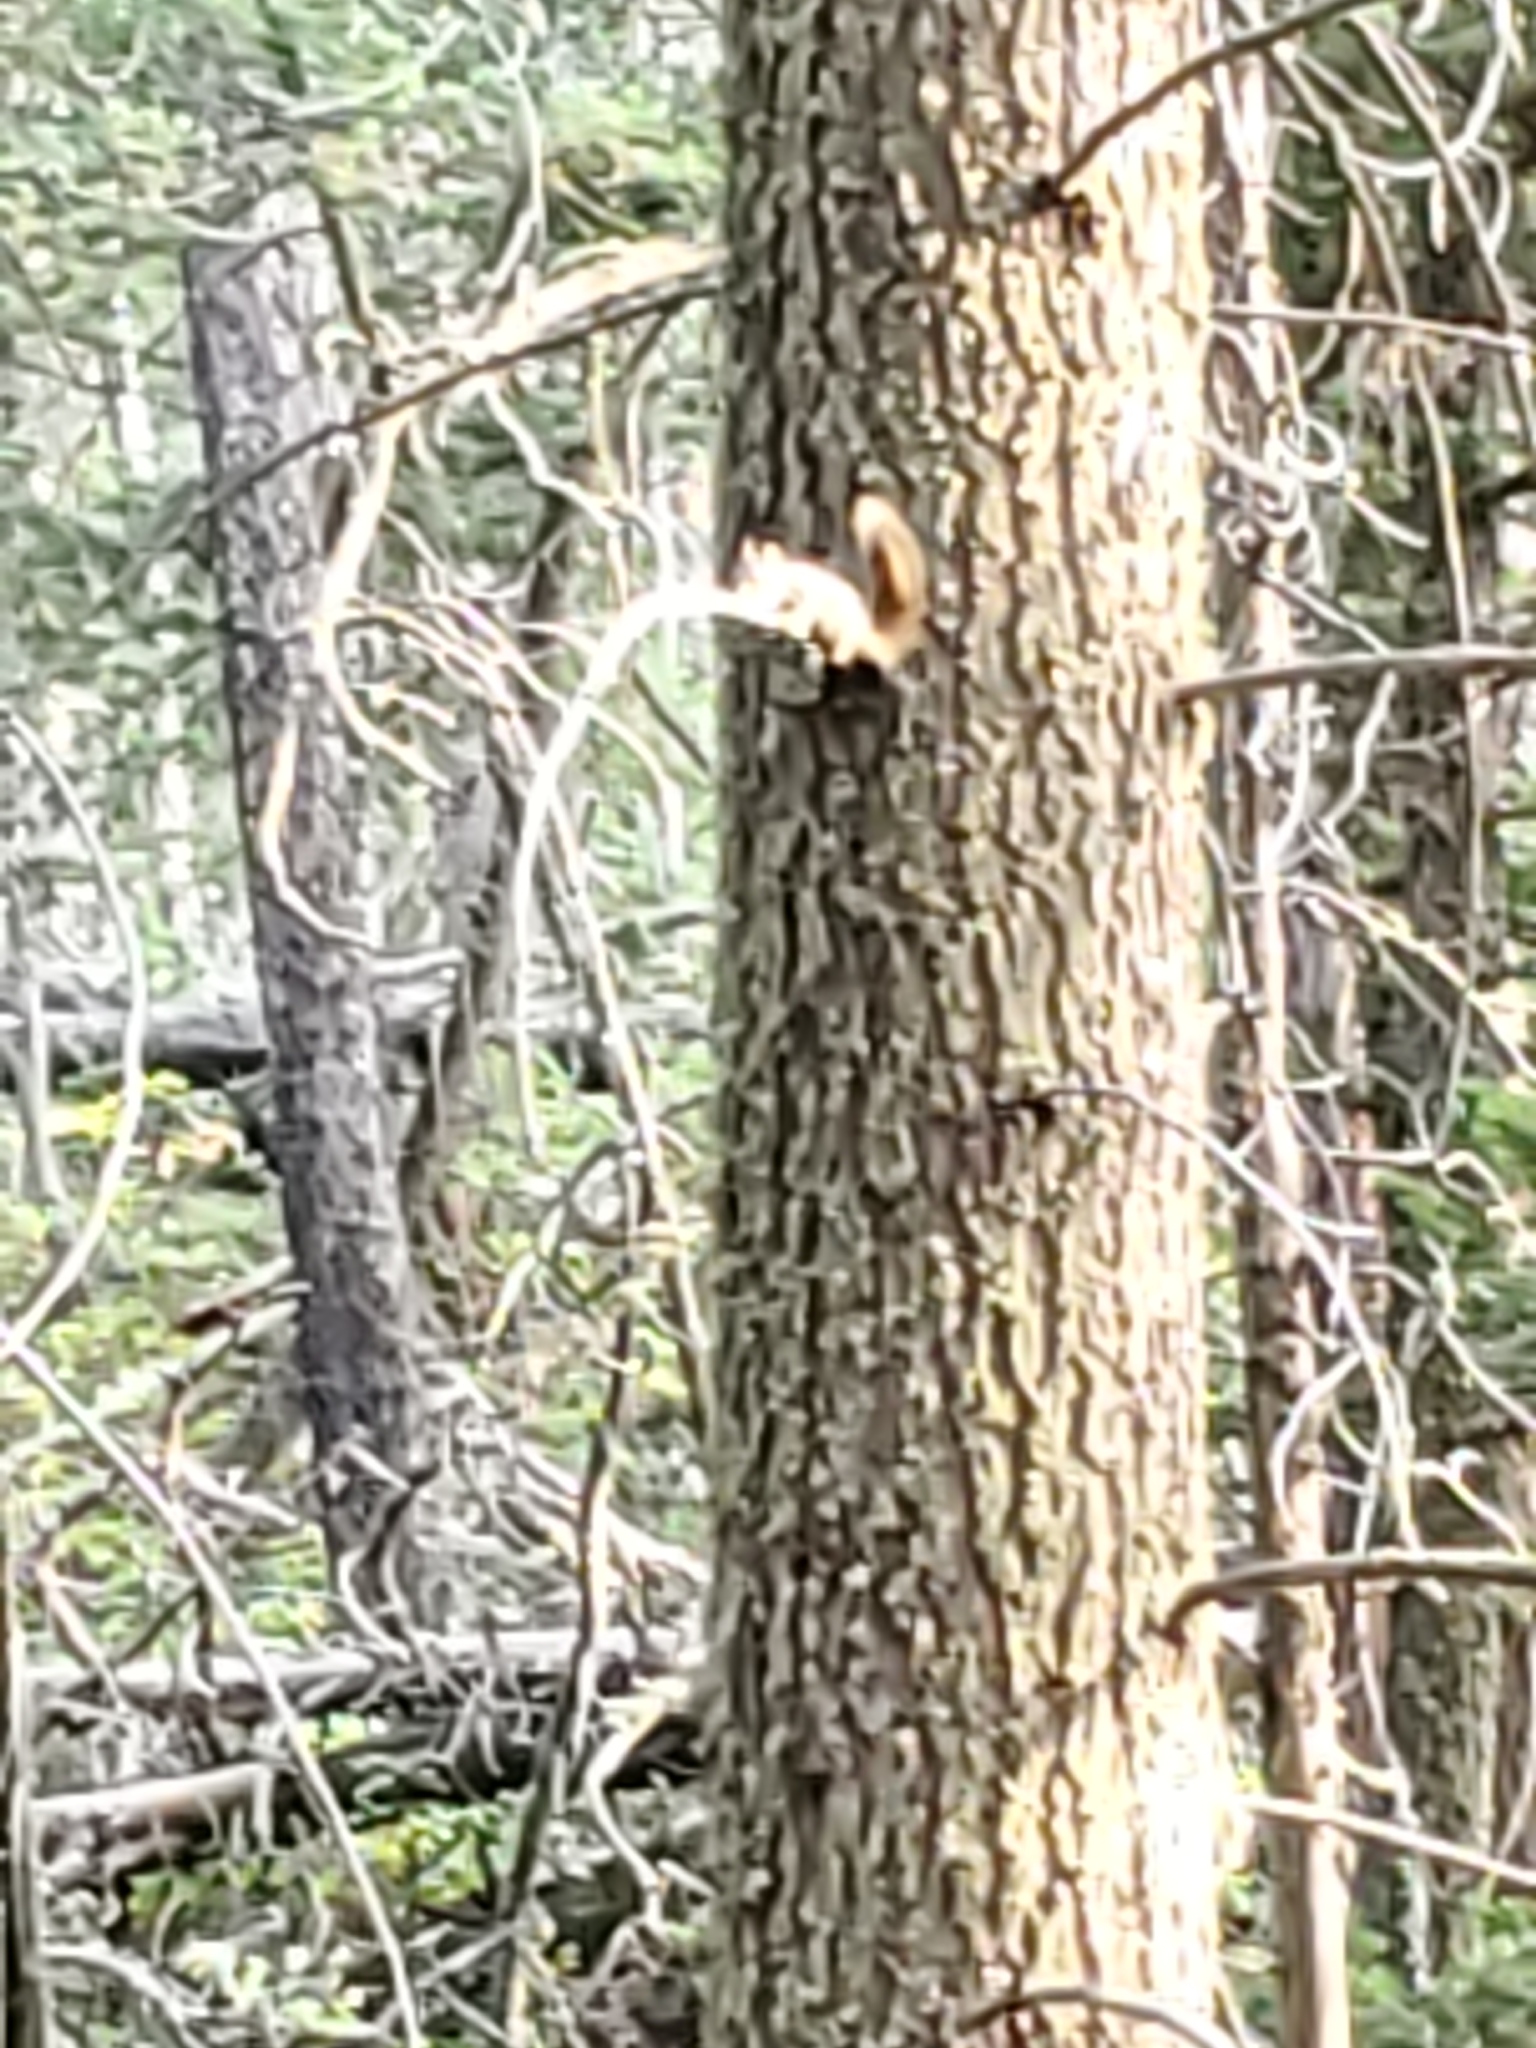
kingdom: Animalia
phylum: Chordata
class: Mammalia
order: Rodentia
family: Sciuridae
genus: Tamiasciurus
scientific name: Tamiasciurus hudsonicus
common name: Red squirrel
